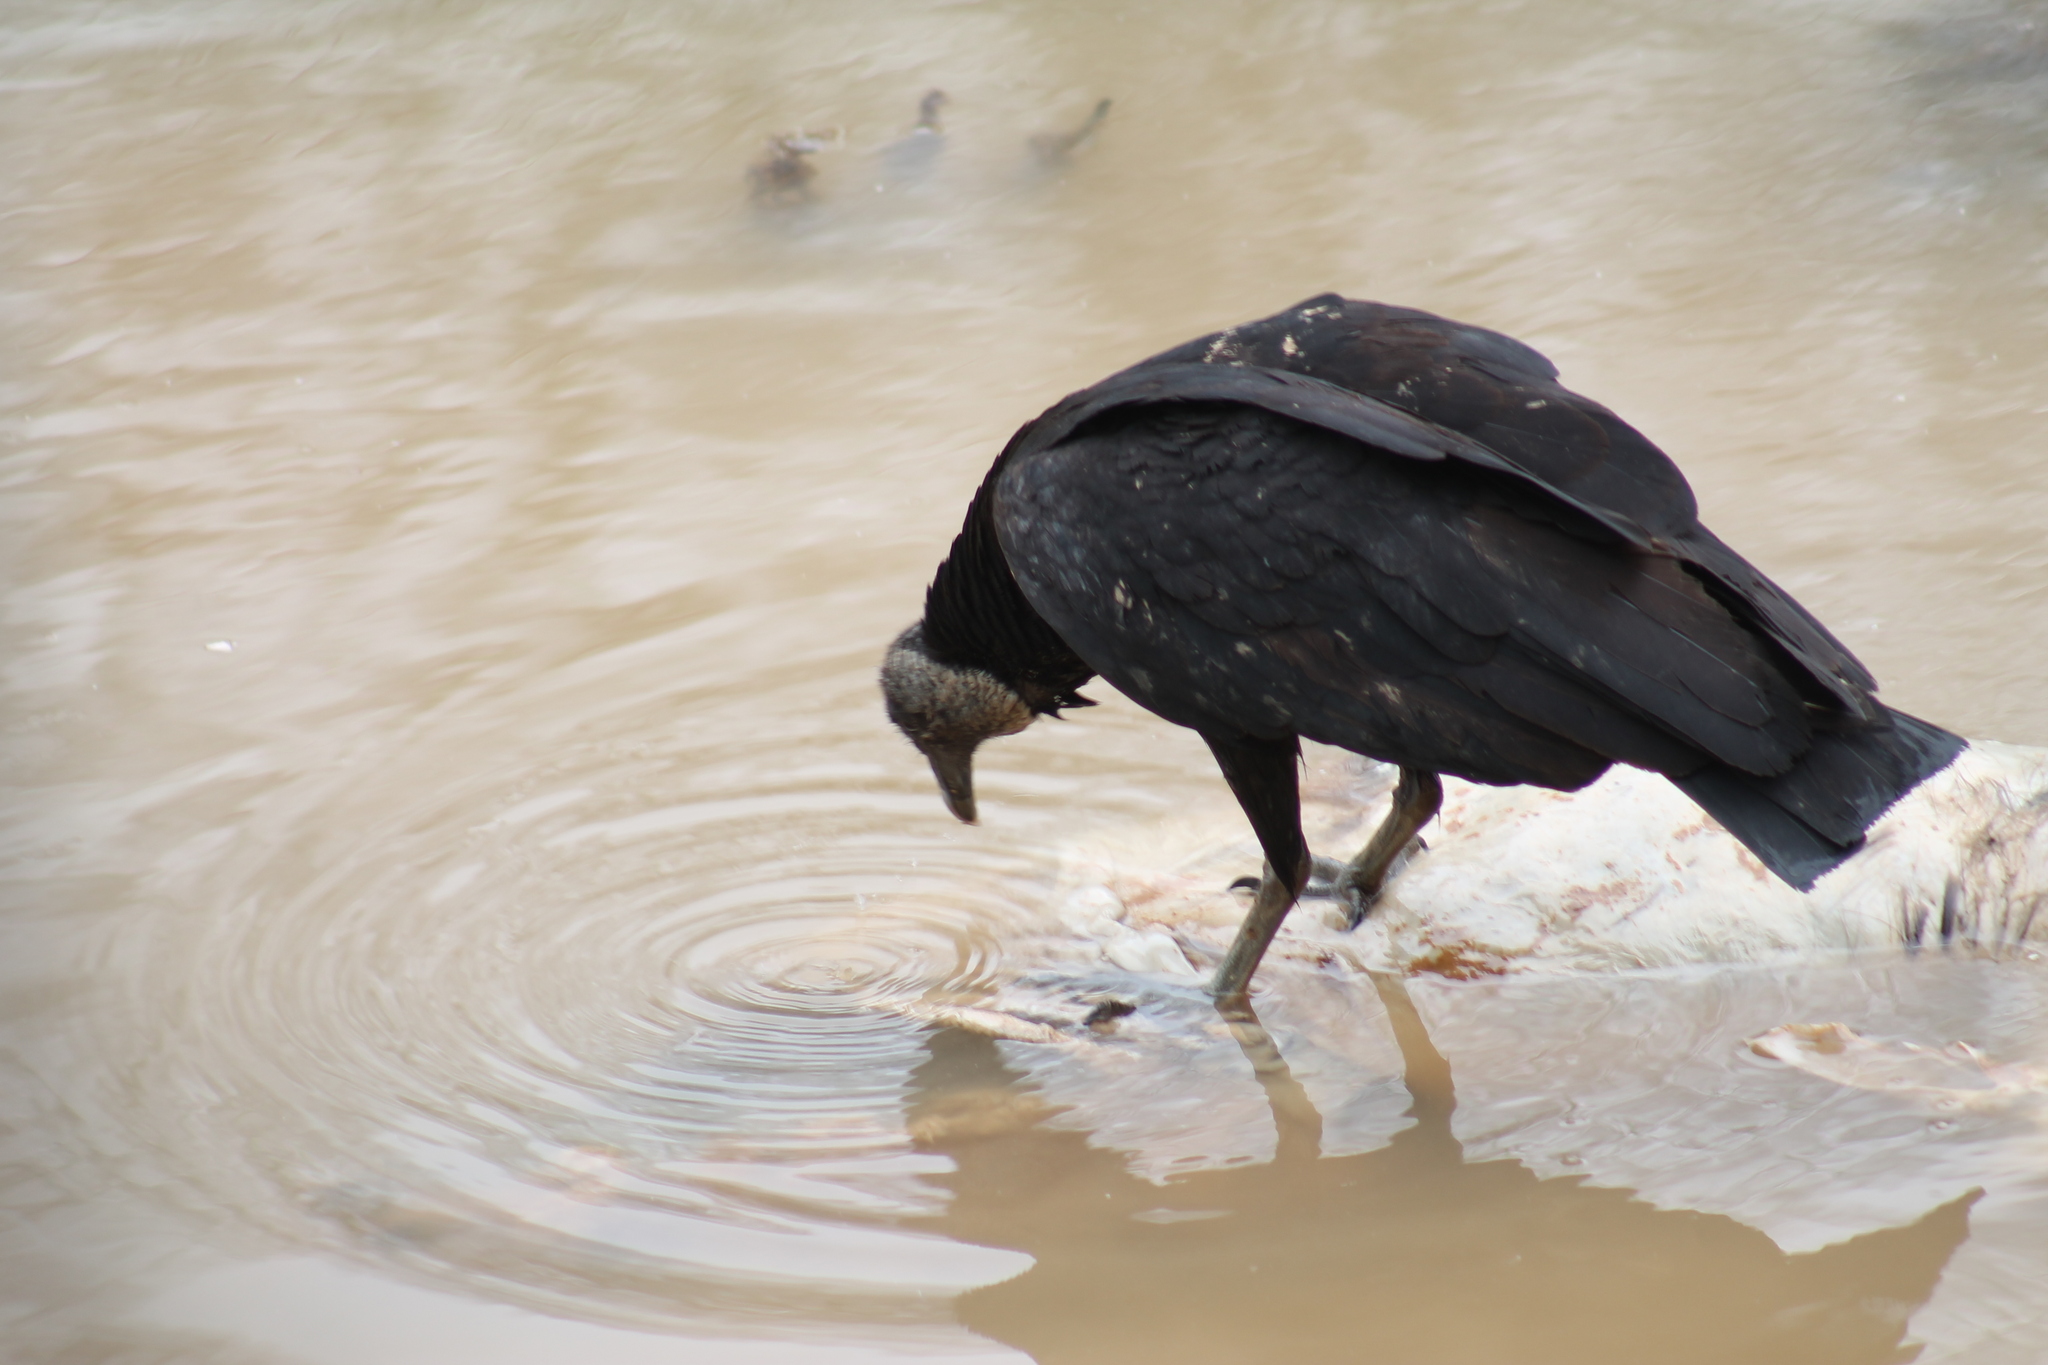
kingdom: Animalia
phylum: Chordata
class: Aves
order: Accipitriformes
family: Cathartidae
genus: Coragyps
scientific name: Coragyps atratus
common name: Black vulture
